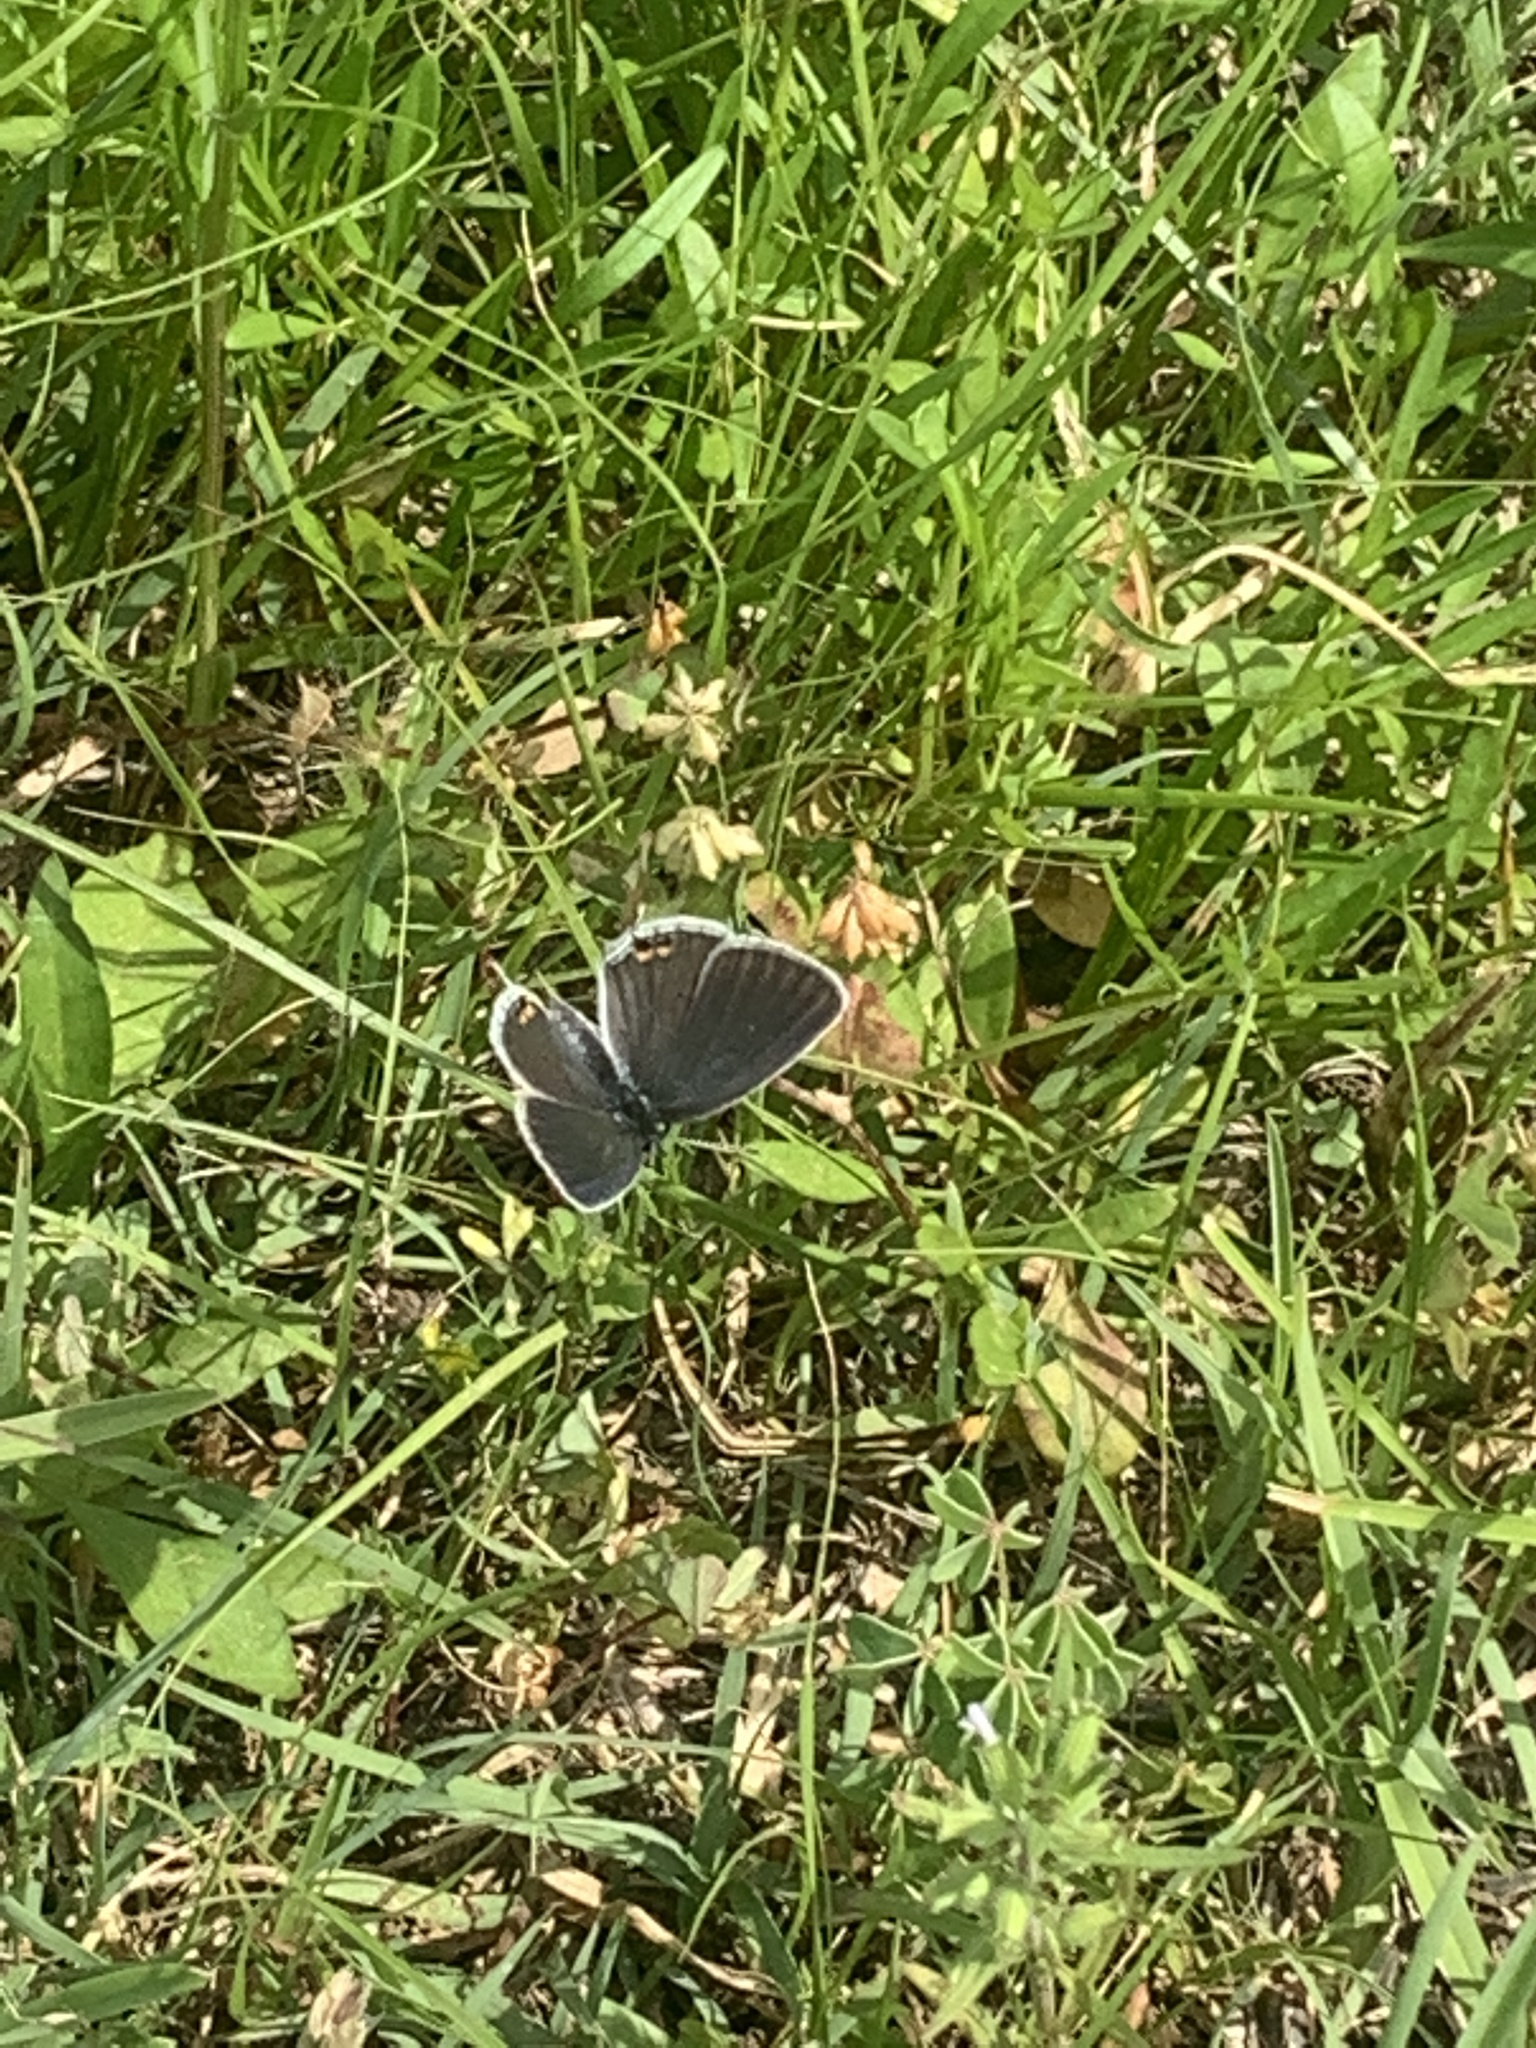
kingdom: Animalia
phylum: Arthropoda
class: Insecta
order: Lepidoptera
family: Lycaenidae
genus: Elkalyce
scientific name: Elkalyce comyntas
